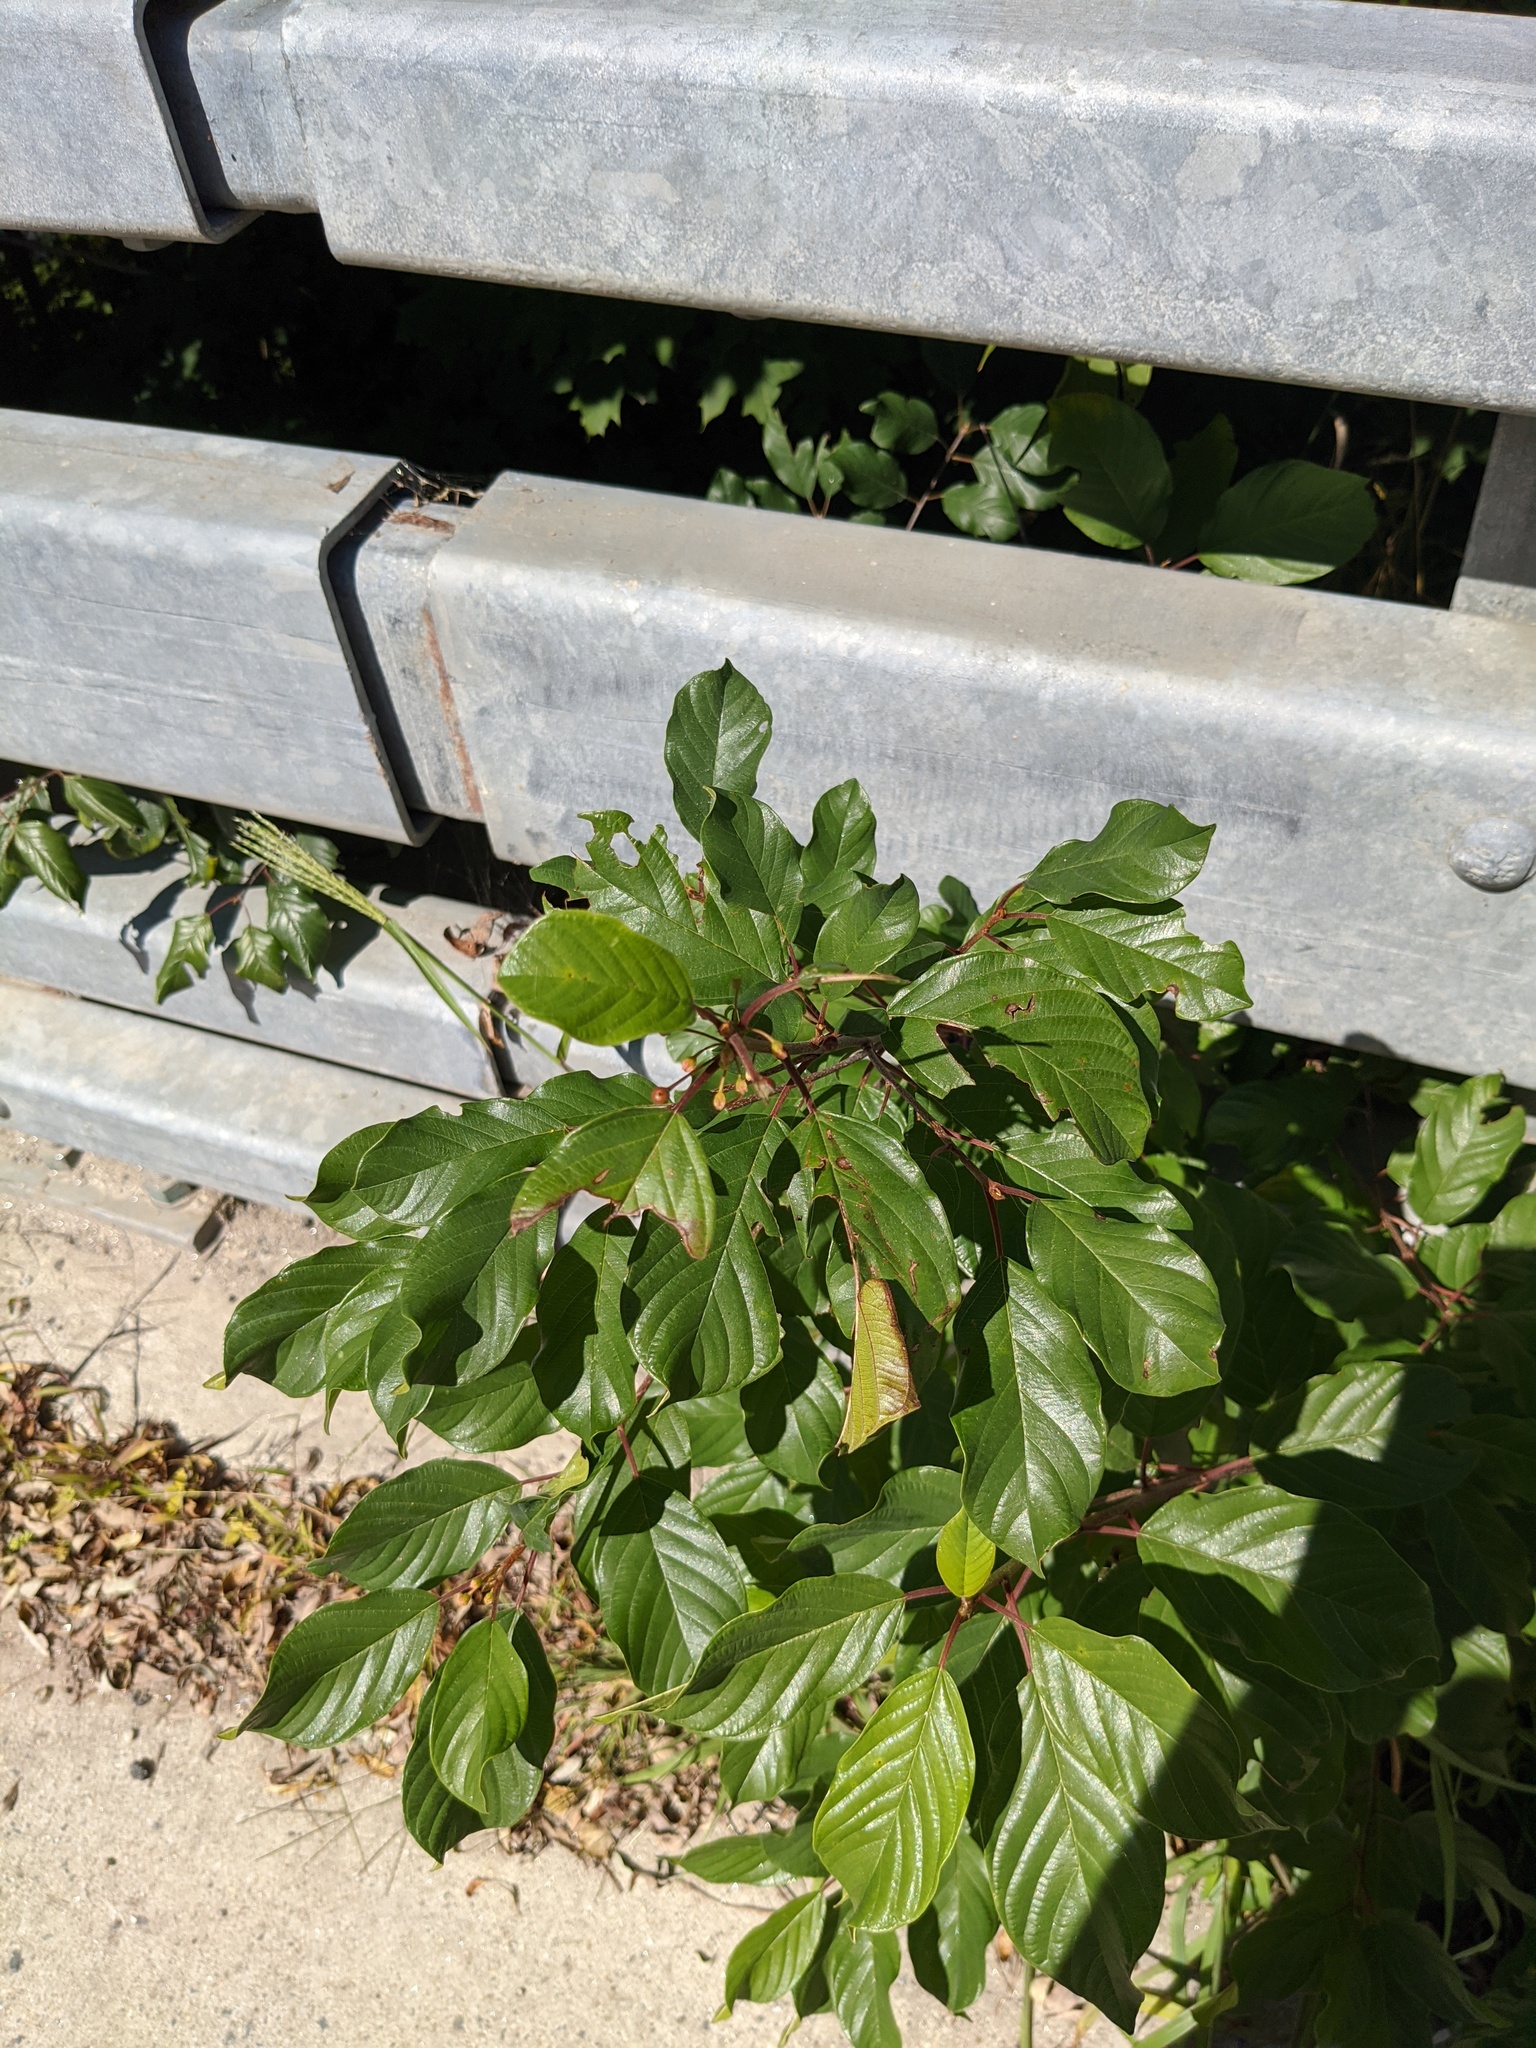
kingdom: Plantae
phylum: Tracheophyta
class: Magnoliopsida
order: Rosales
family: Rhamnaceae
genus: Frangula
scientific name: Frangula alnus
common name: Alder buckthorn
